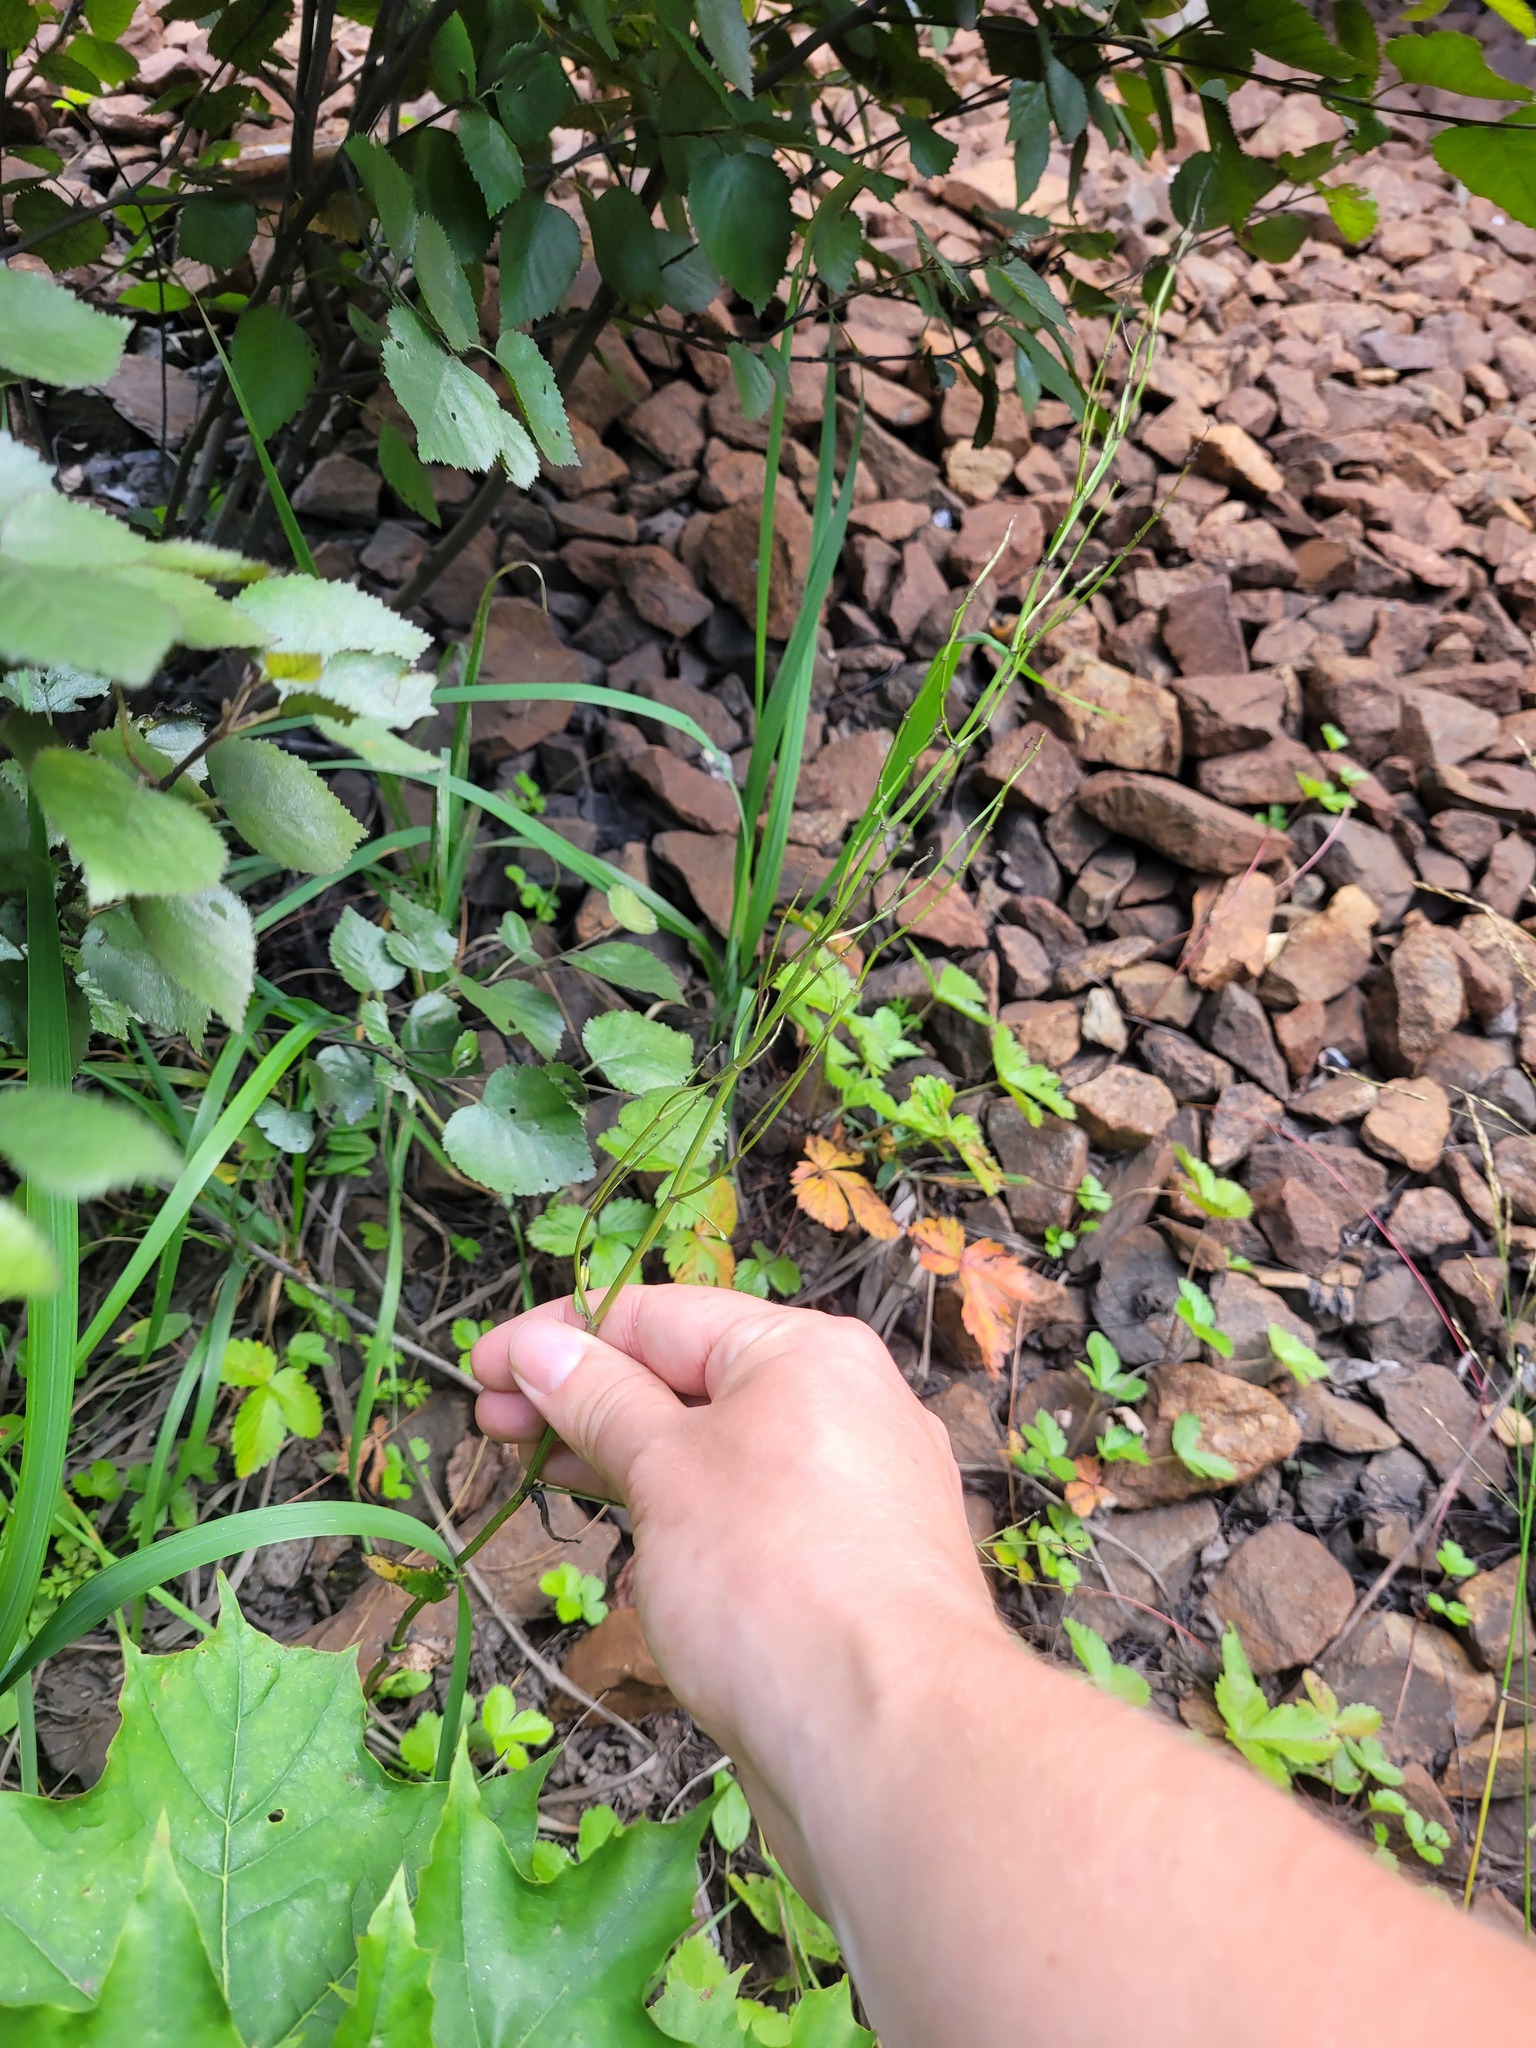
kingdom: Plantae
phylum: Tracheophyta
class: Magnoliopsida
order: Caryophyllales
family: Polygonaceae
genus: Rumex
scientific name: Rumex acetosa
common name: Garden sorrel
